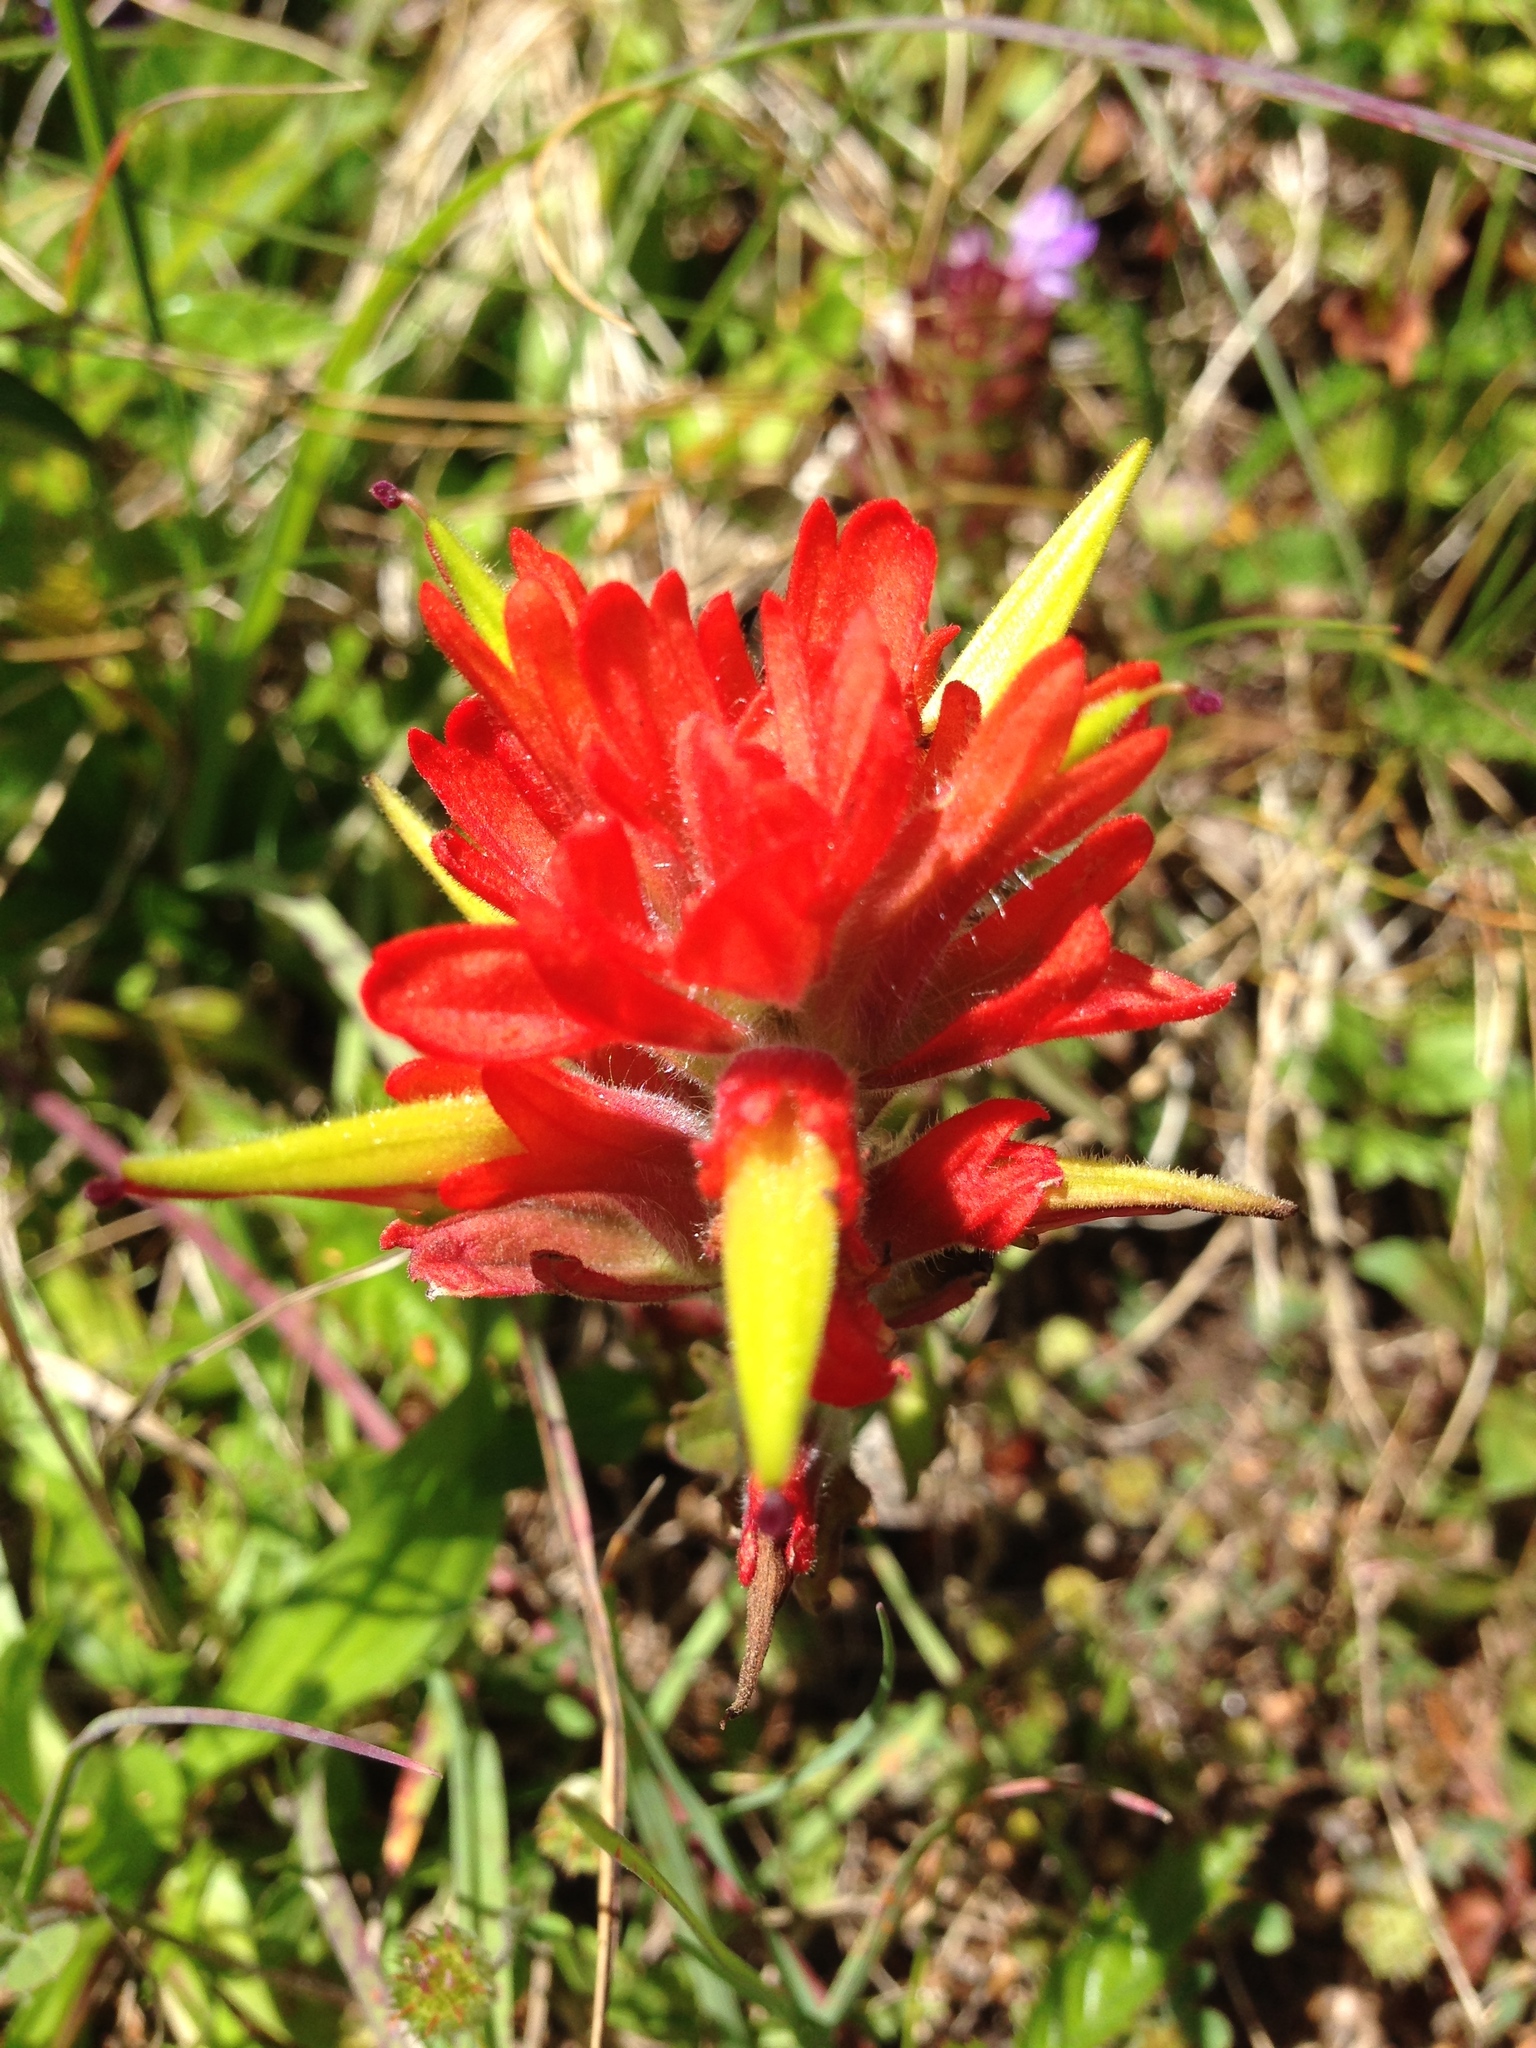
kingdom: Plantae
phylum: Tracheophyta
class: Magnoliopsida
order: Lamiales
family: Orobanchaceae
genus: Castilleja
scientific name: Castilleja litoralis
